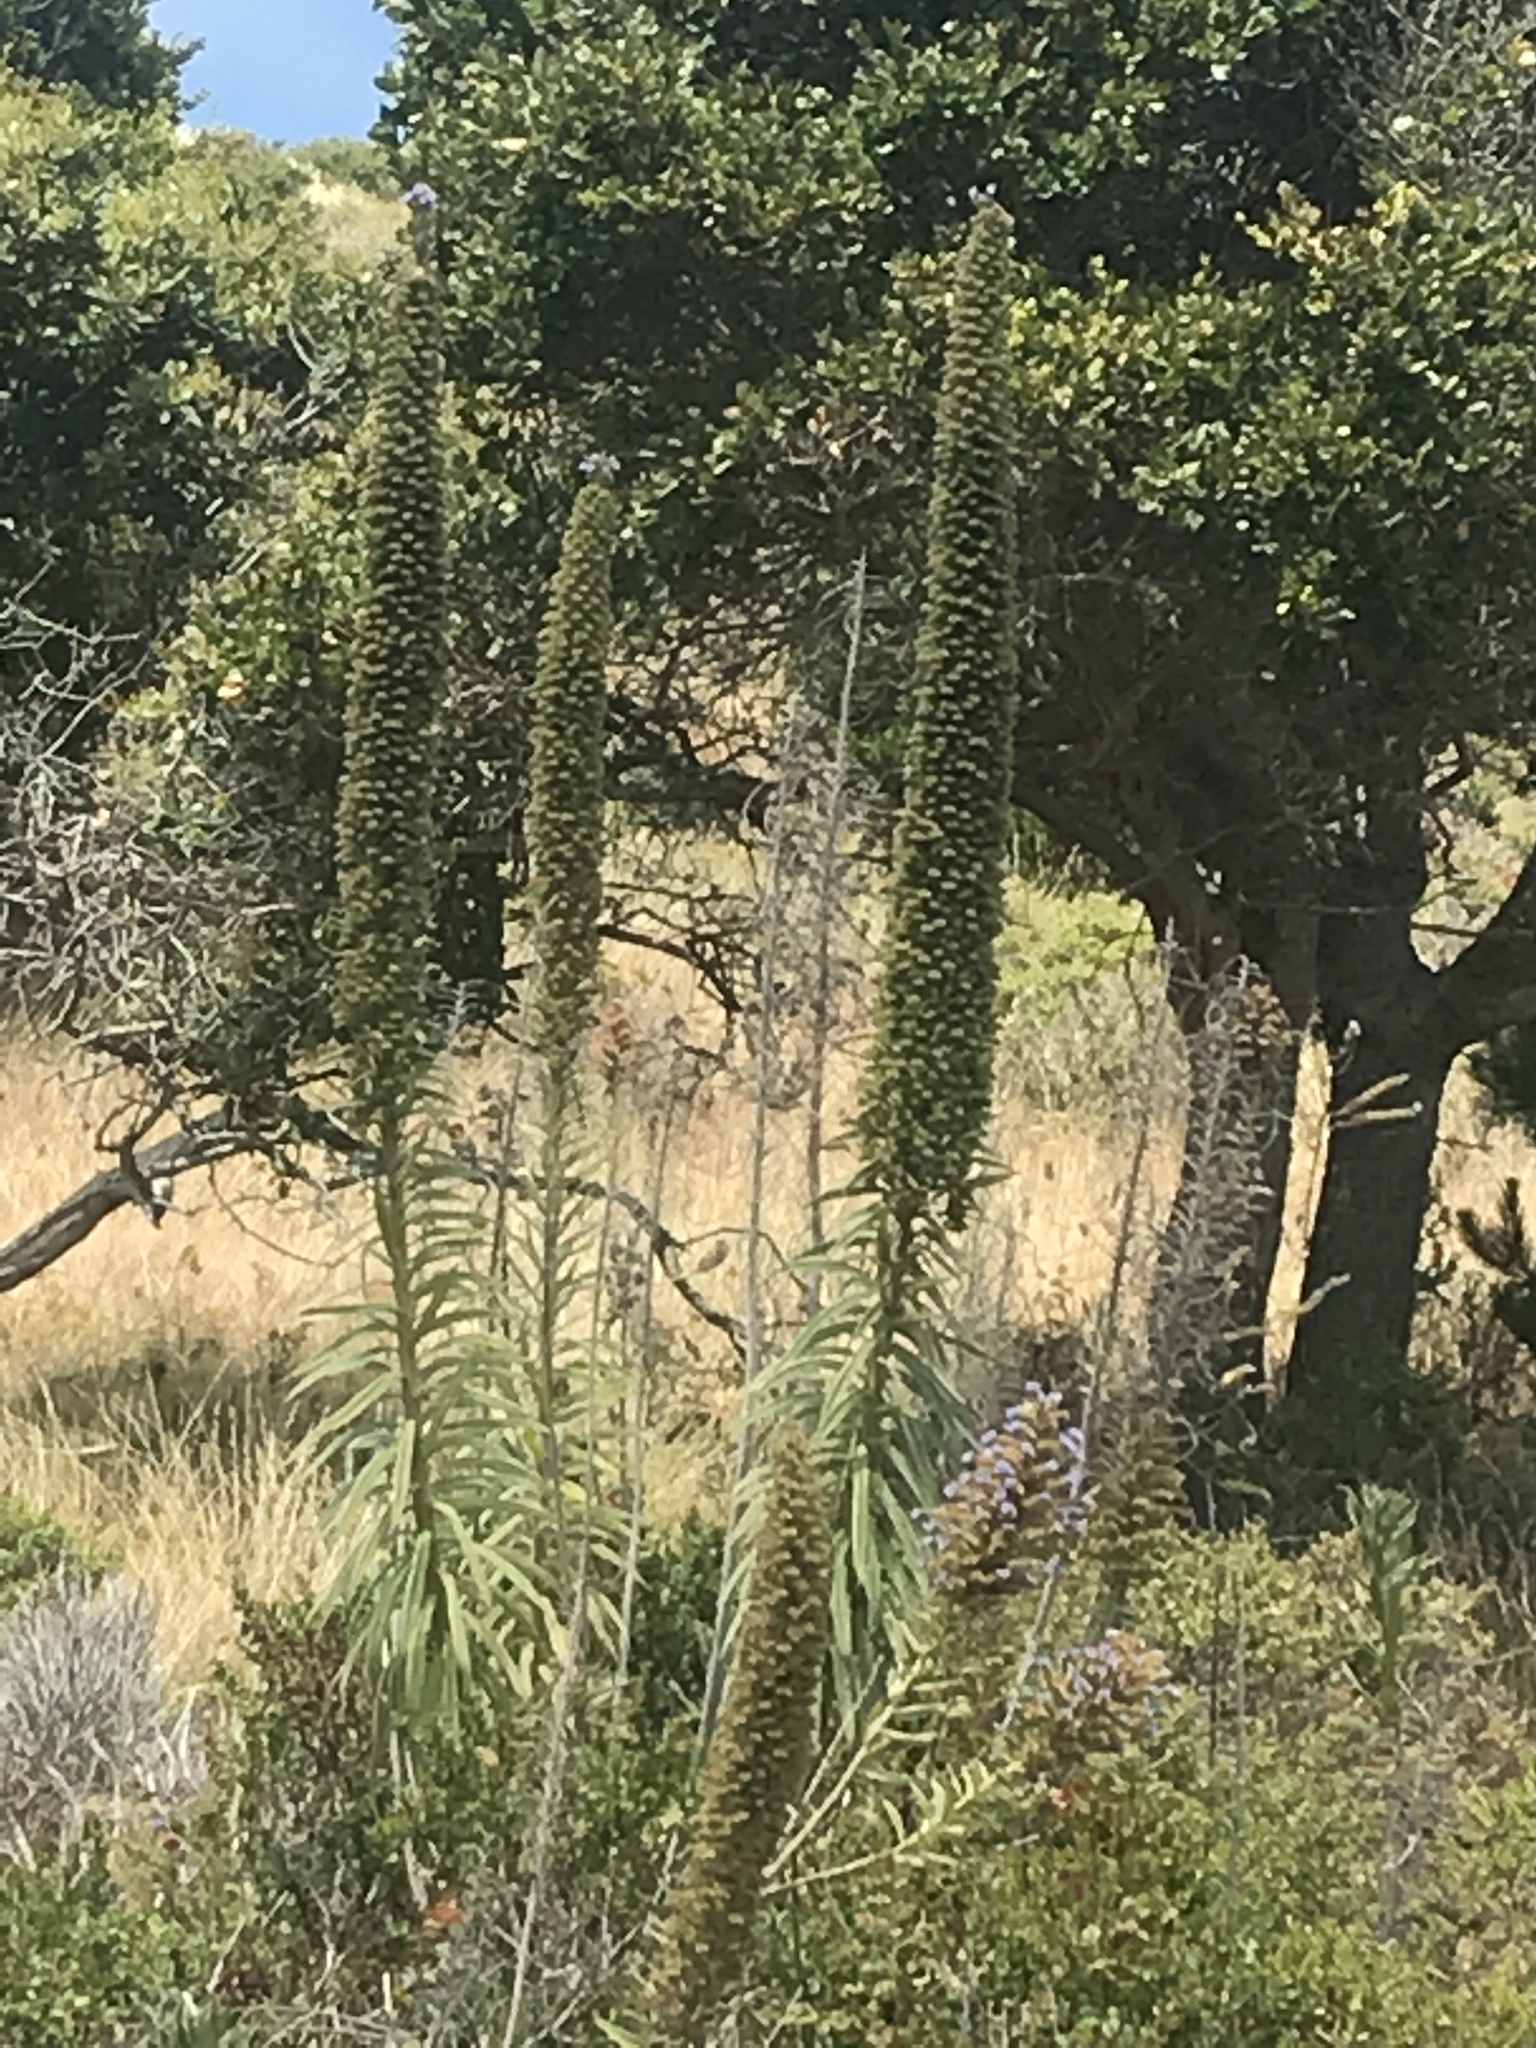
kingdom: Plantae
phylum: Tracheophyta
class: Magnoliopsida
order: Boraginales
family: Boraginaceae
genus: Echium
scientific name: Echium pininana
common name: Giant viper's-bugloss
